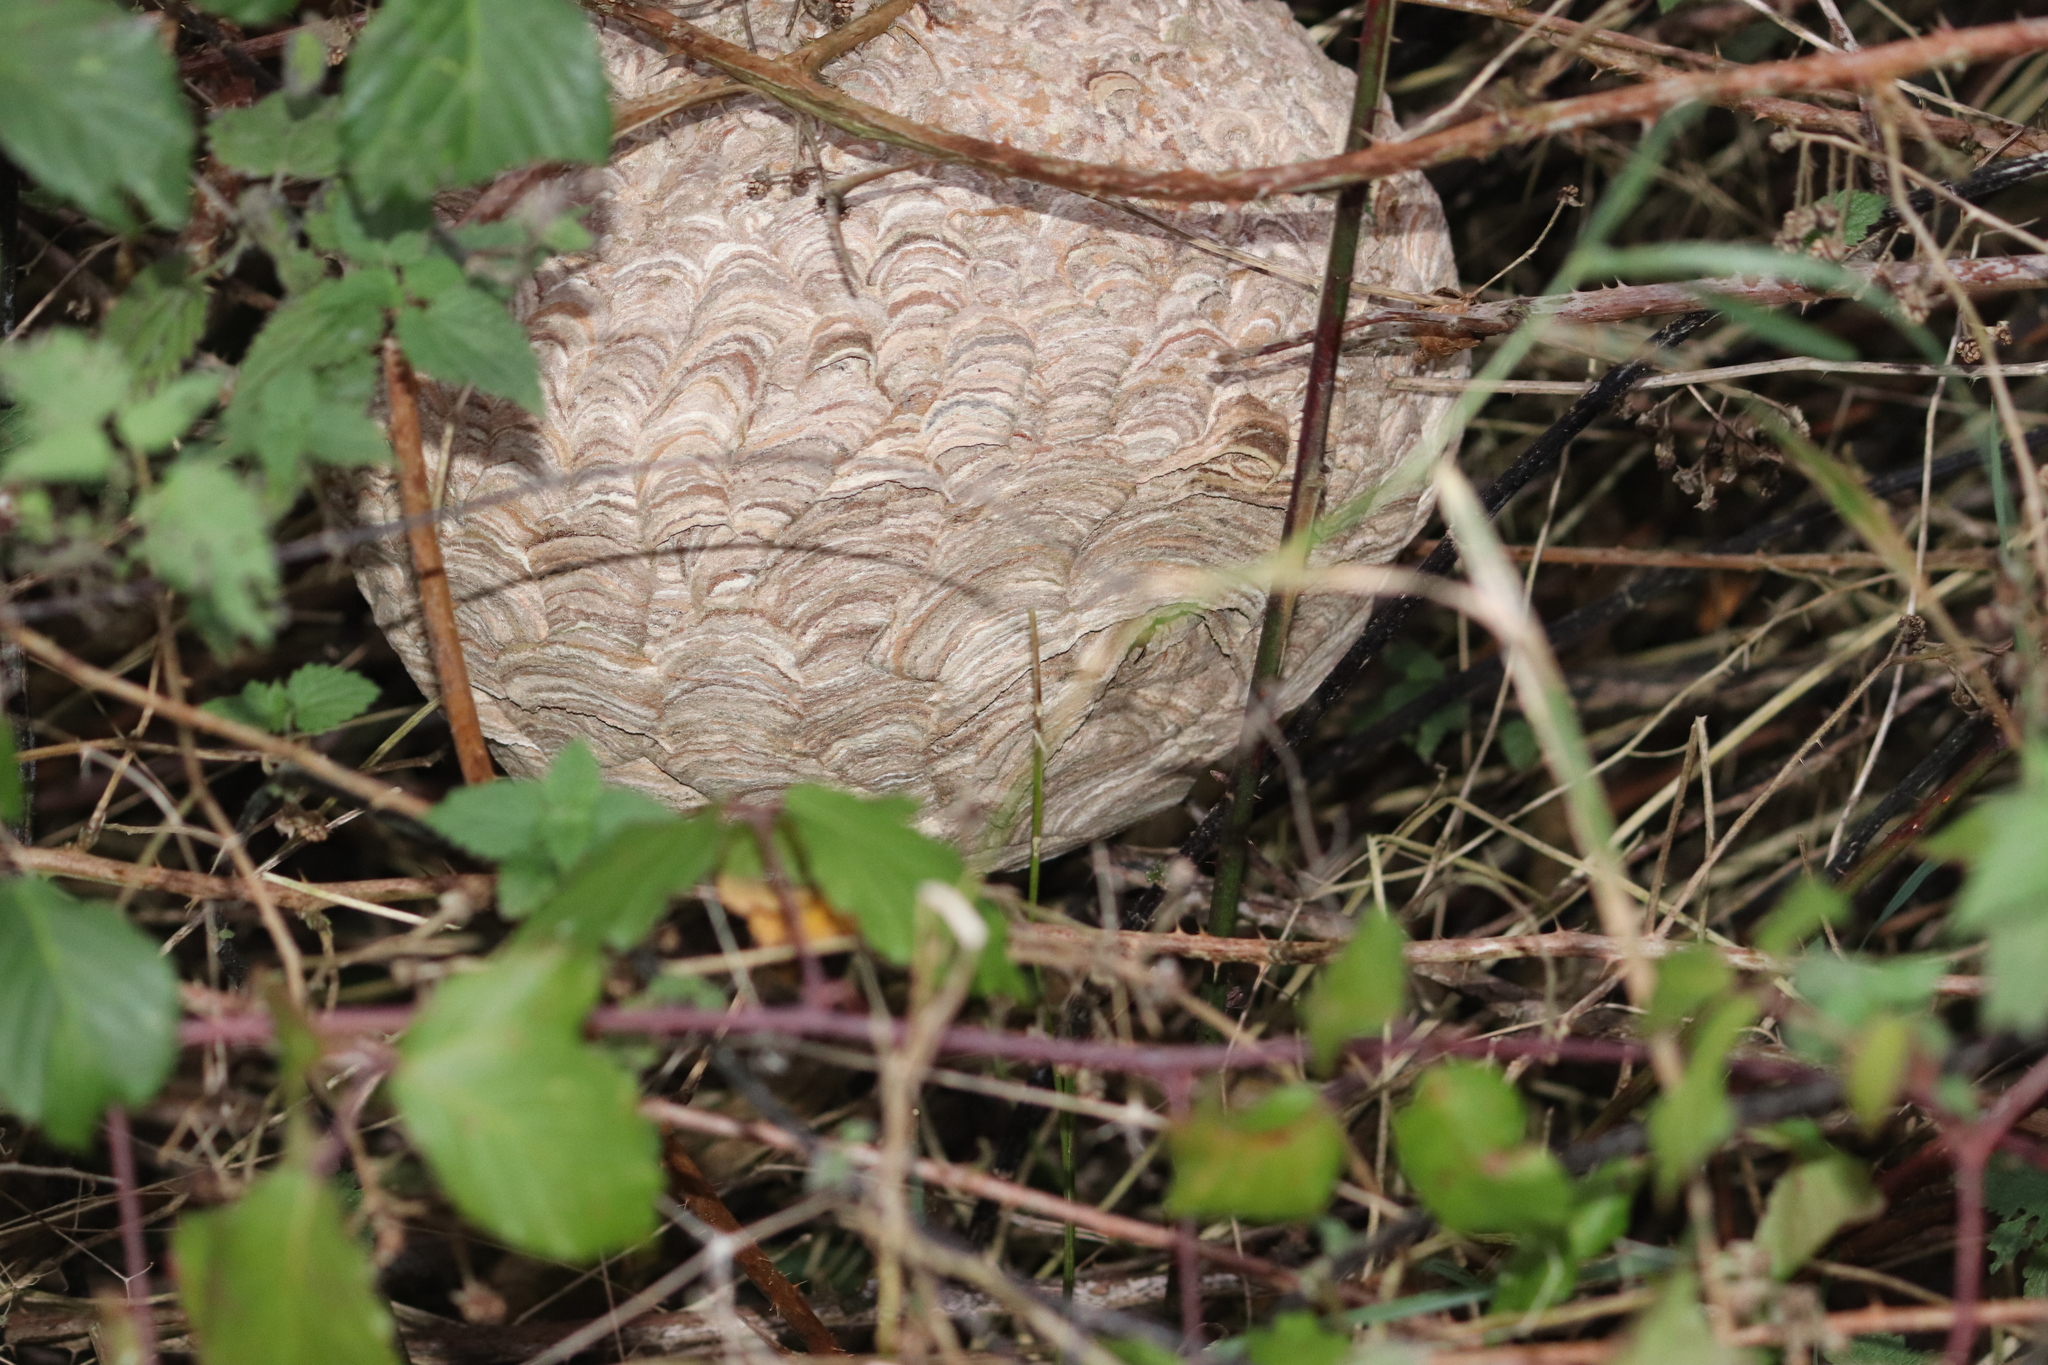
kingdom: Animalia
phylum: Arthropoda
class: Insecta
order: Hymenoptera
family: Vespidae
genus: Vespa
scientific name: Vespa velutina
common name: Asian hornet
